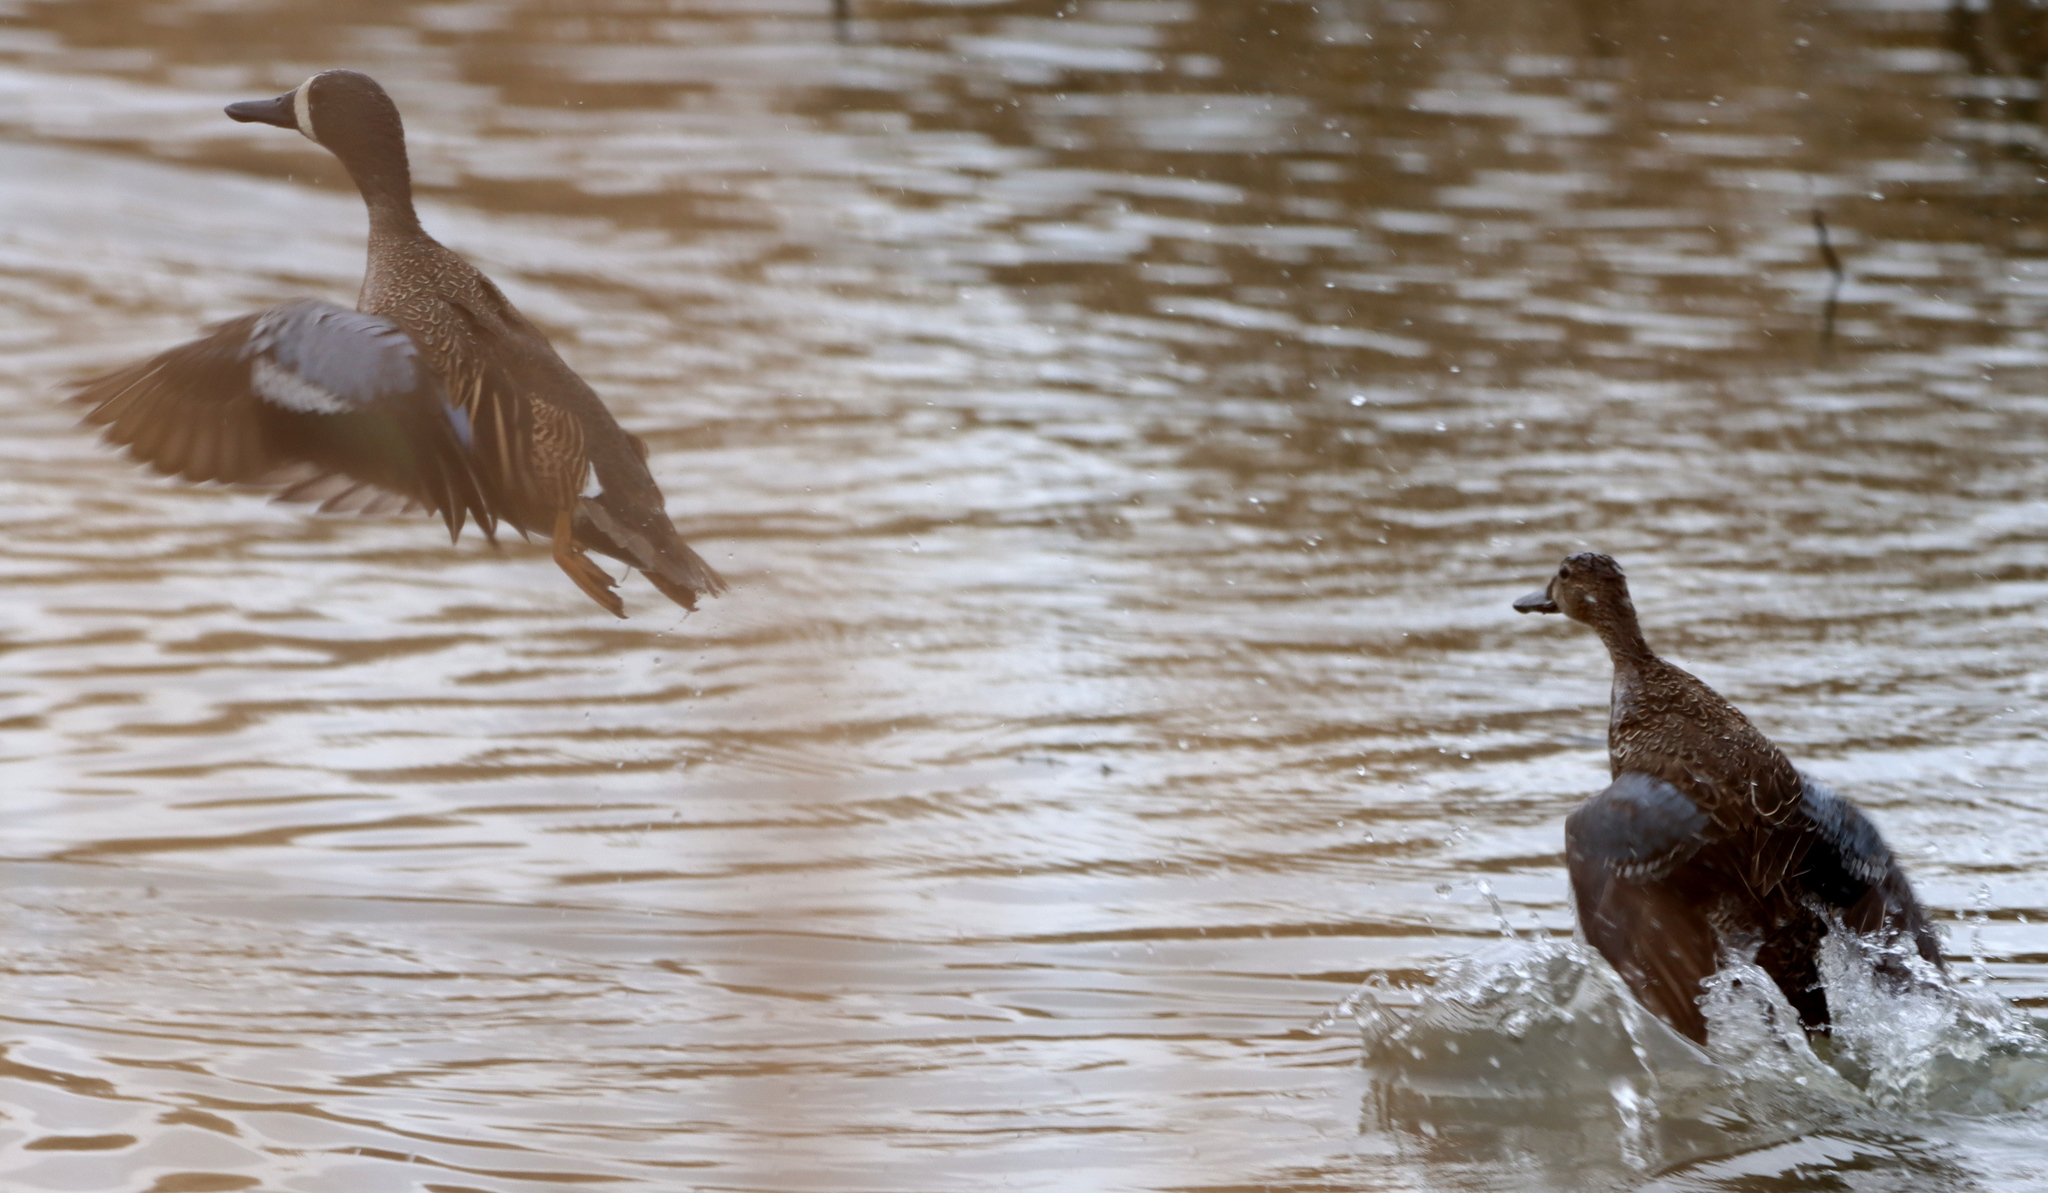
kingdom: Animalia
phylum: Chordata
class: Aves
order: Anseriformes
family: Anatidae
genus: Spatula
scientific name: Spatula discors
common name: Blue-winged teal
